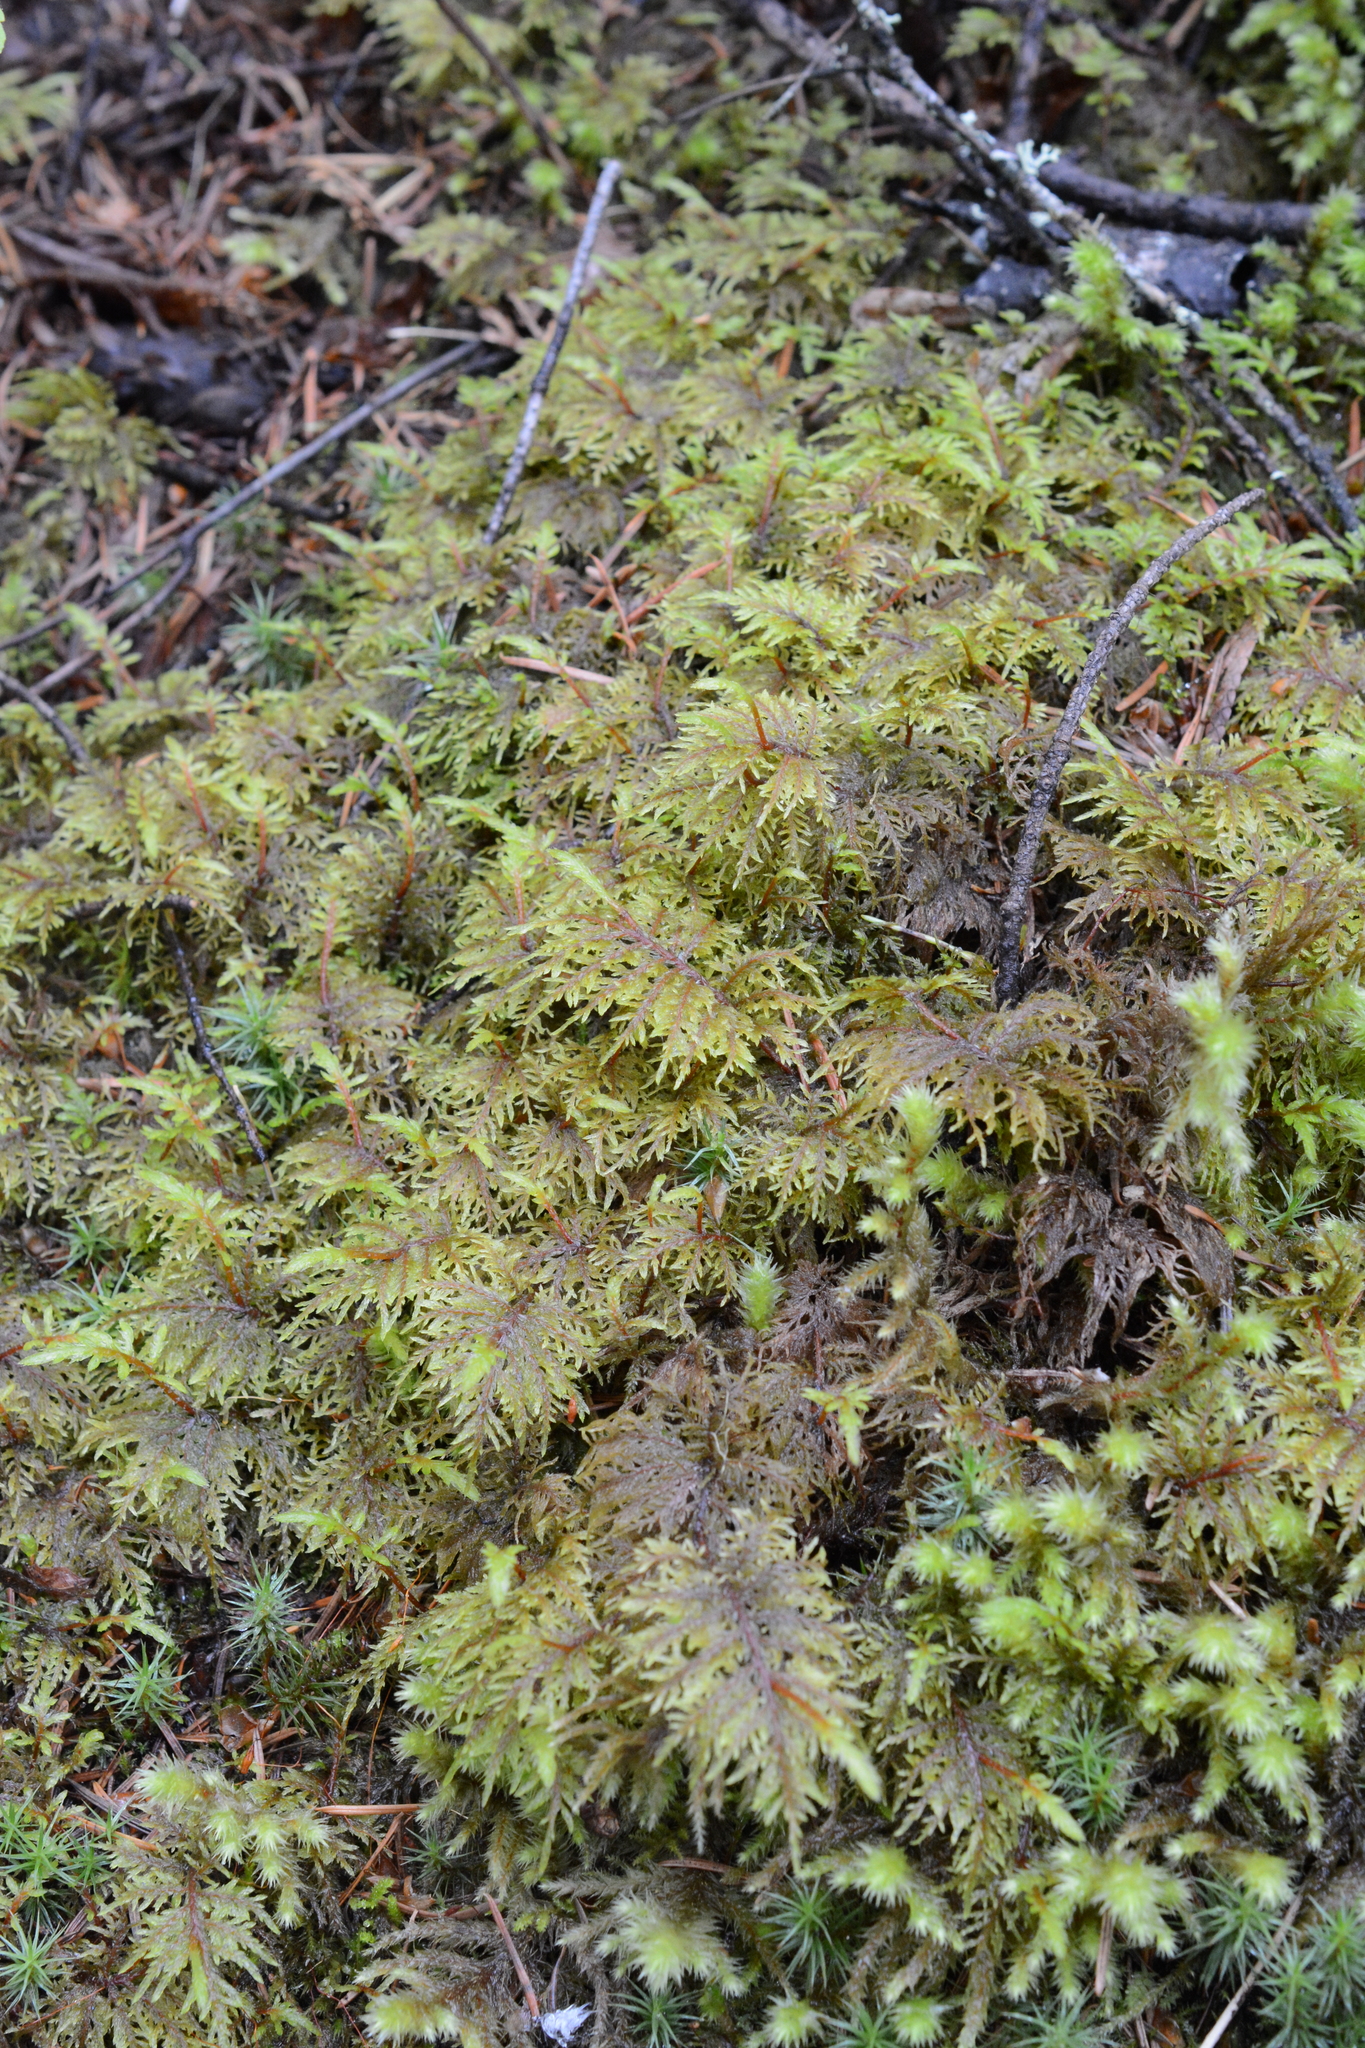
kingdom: Plantae
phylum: Bryophyta
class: Bryopsida
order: Hypnales
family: Hylocomiaceae
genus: Hylocomium
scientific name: Hylocomium splendens
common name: Stairstep moss
